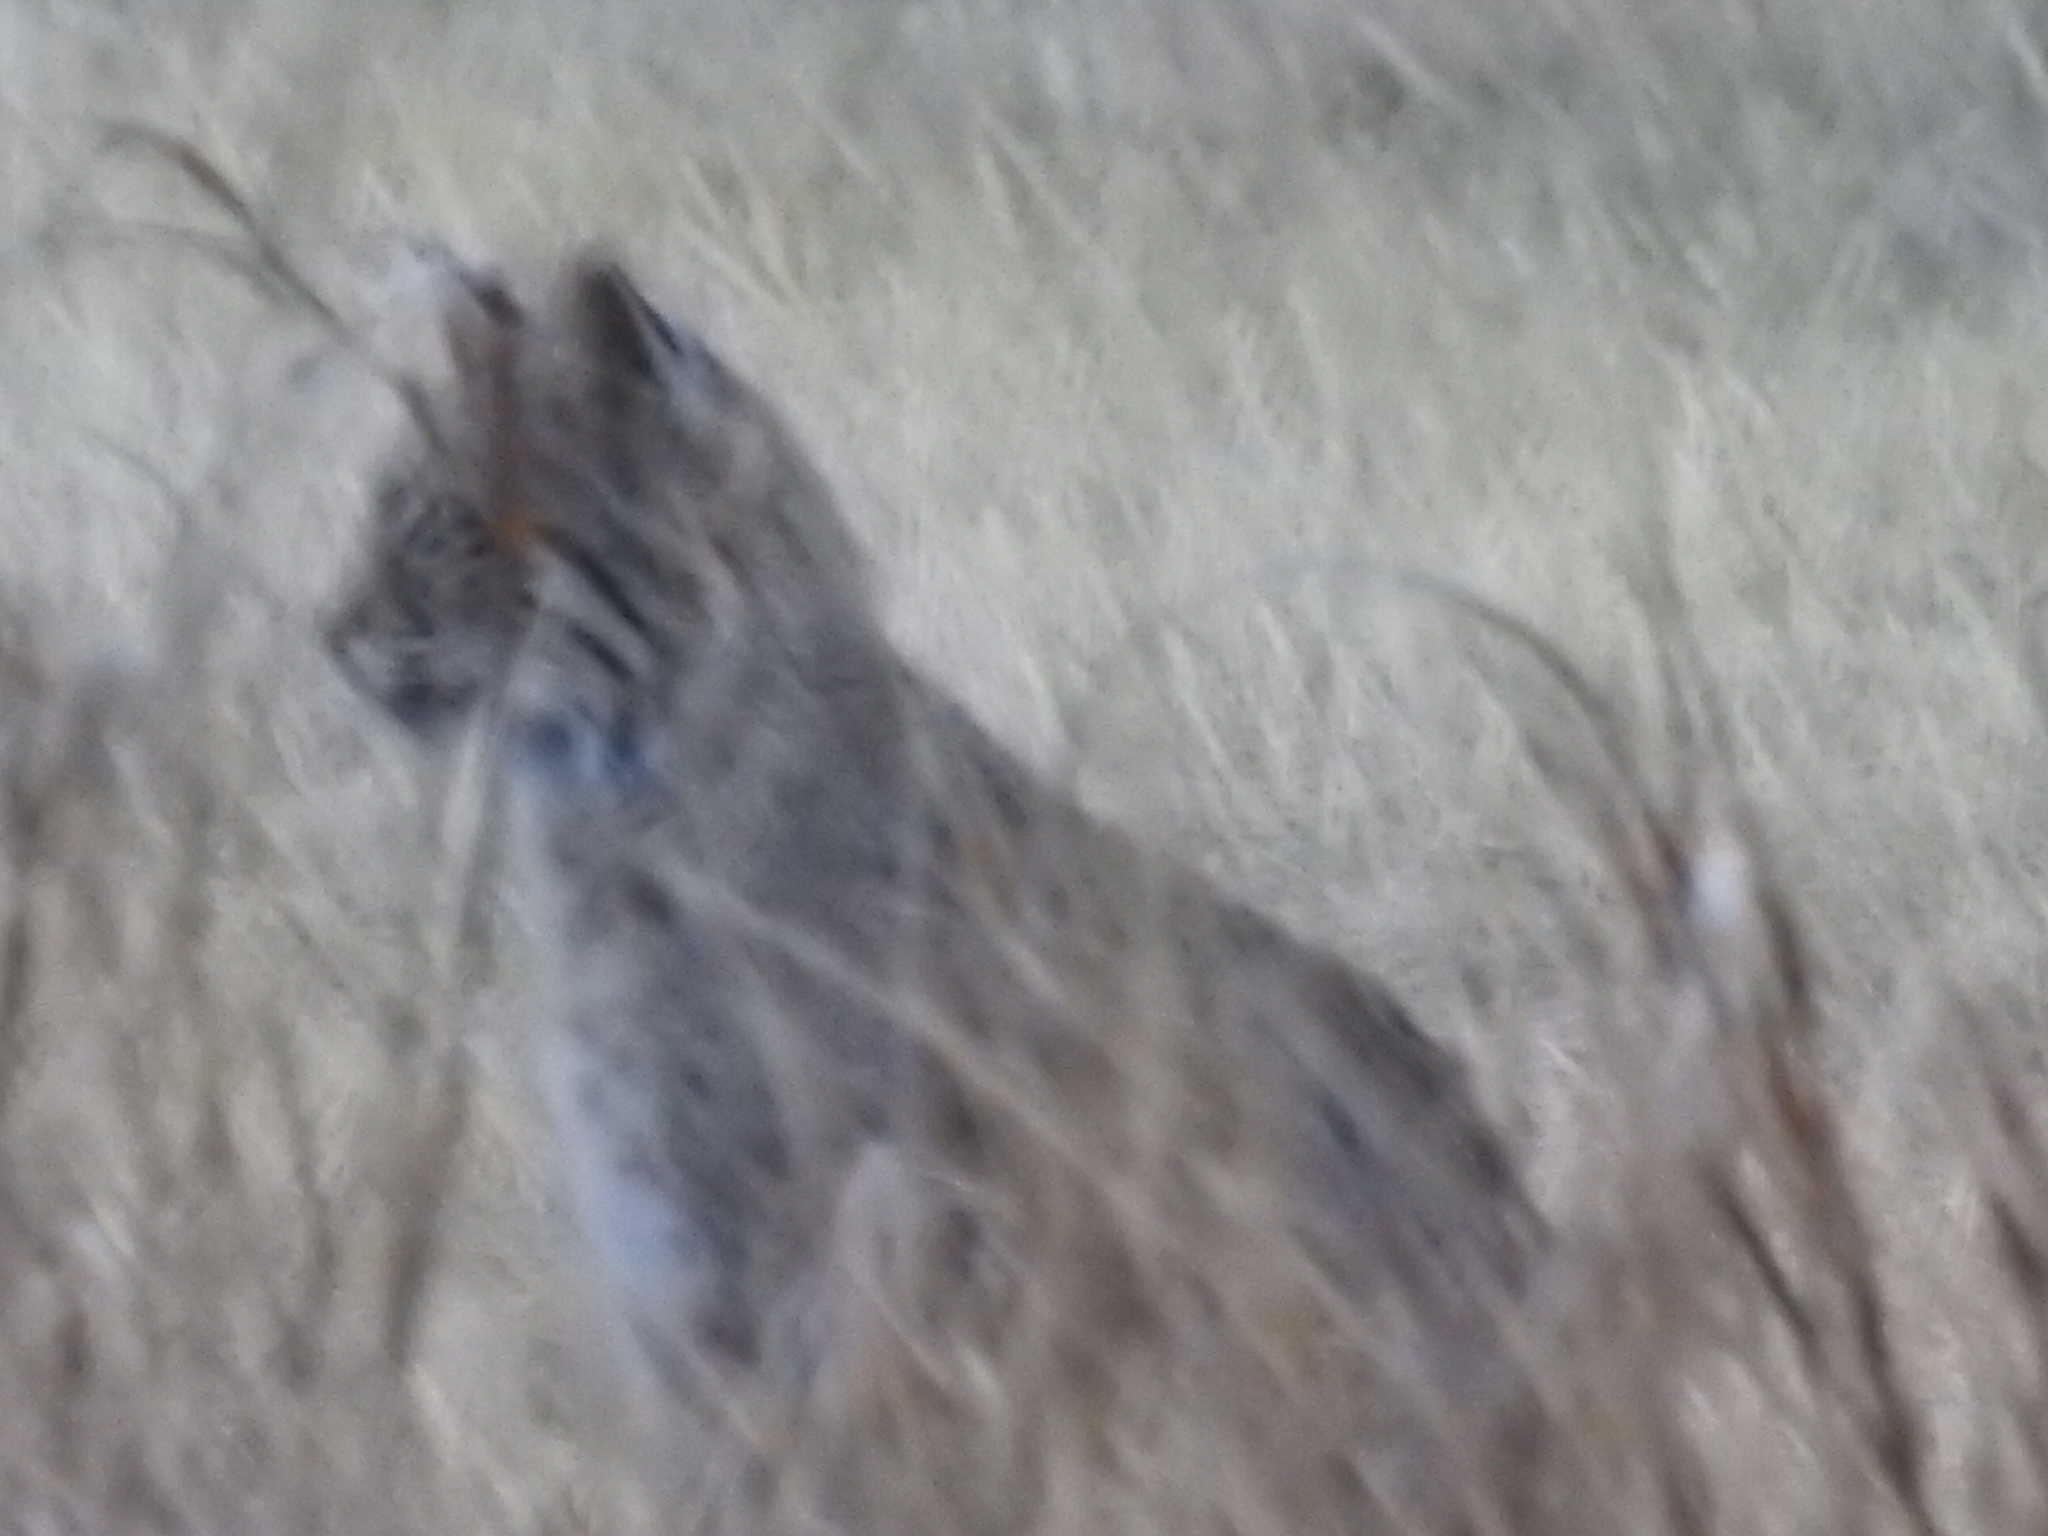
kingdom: Animalia
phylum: Chordata
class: Mammalia
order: Carnivora
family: Felidae
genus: Lynx
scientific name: Lynx rufus
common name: Bobcat
